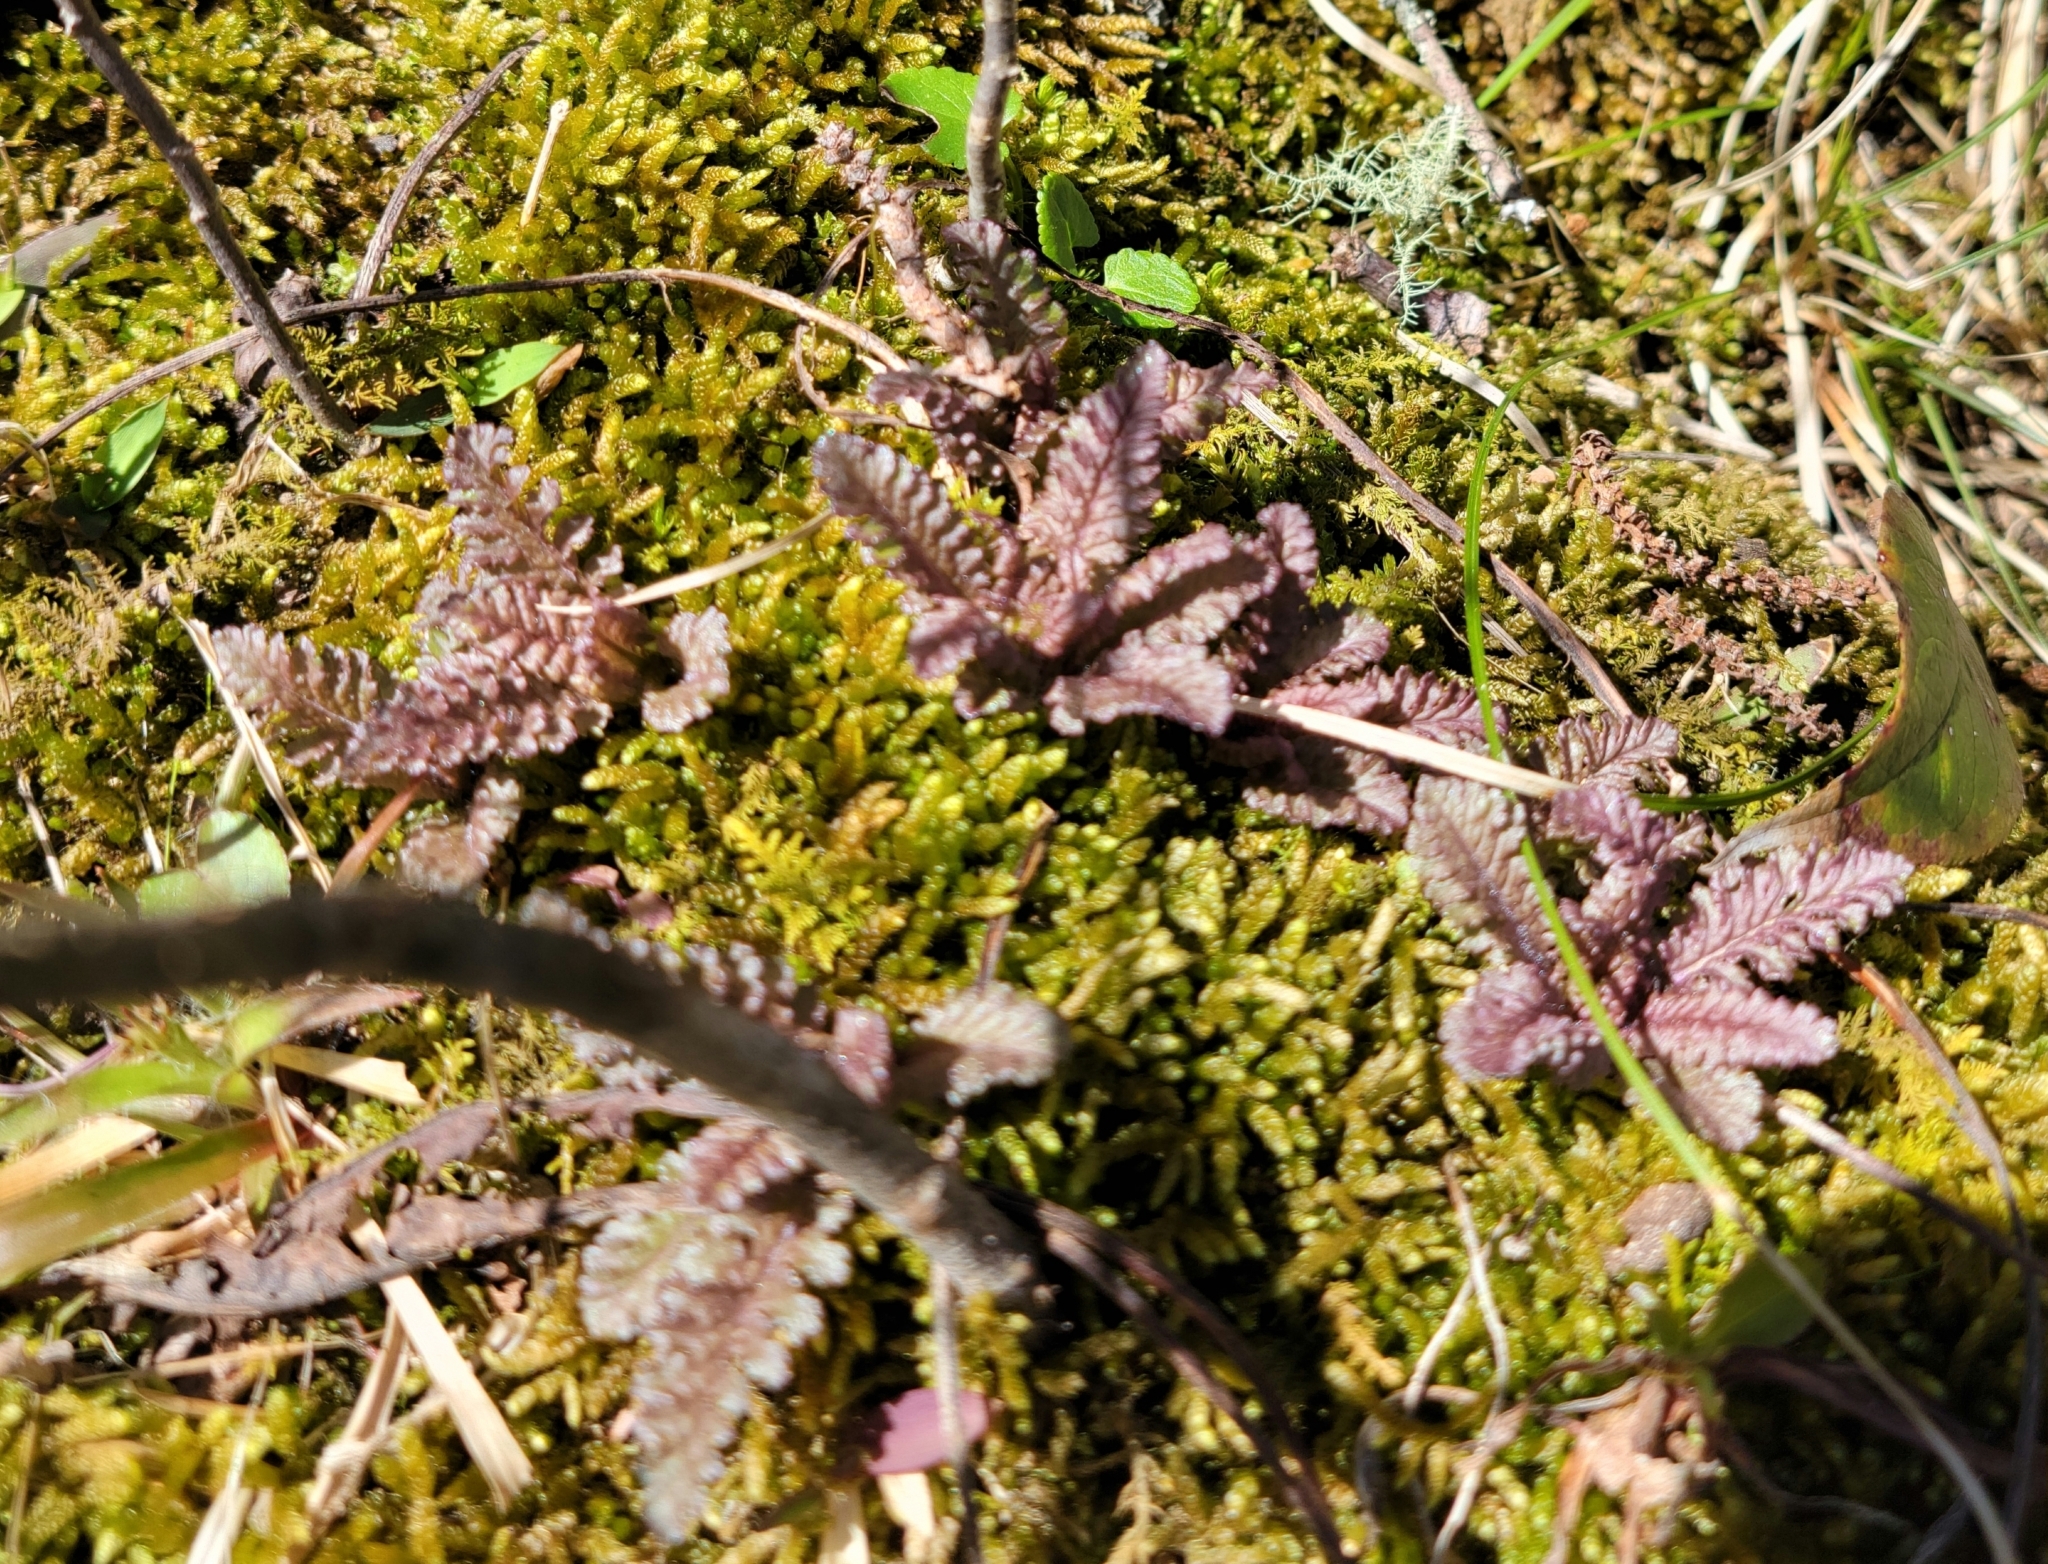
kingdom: Plantae
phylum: Tracheophyta
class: Magnoliopsida
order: Lamiales
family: Orobanchaceae
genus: Pedicularis
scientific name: Pedicularis canadensis
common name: Early lousewort
